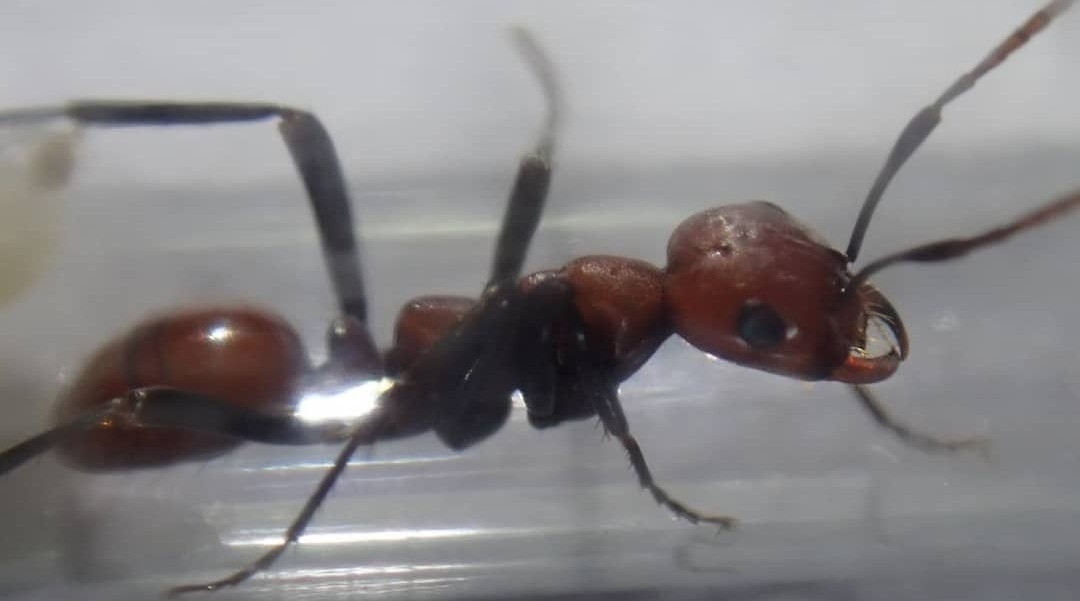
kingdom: Animalia
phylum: Arthropoda
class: Insecta
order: Hymenoptera
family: Formicidae
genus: Polyergus
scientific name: Polyergus montivagus
